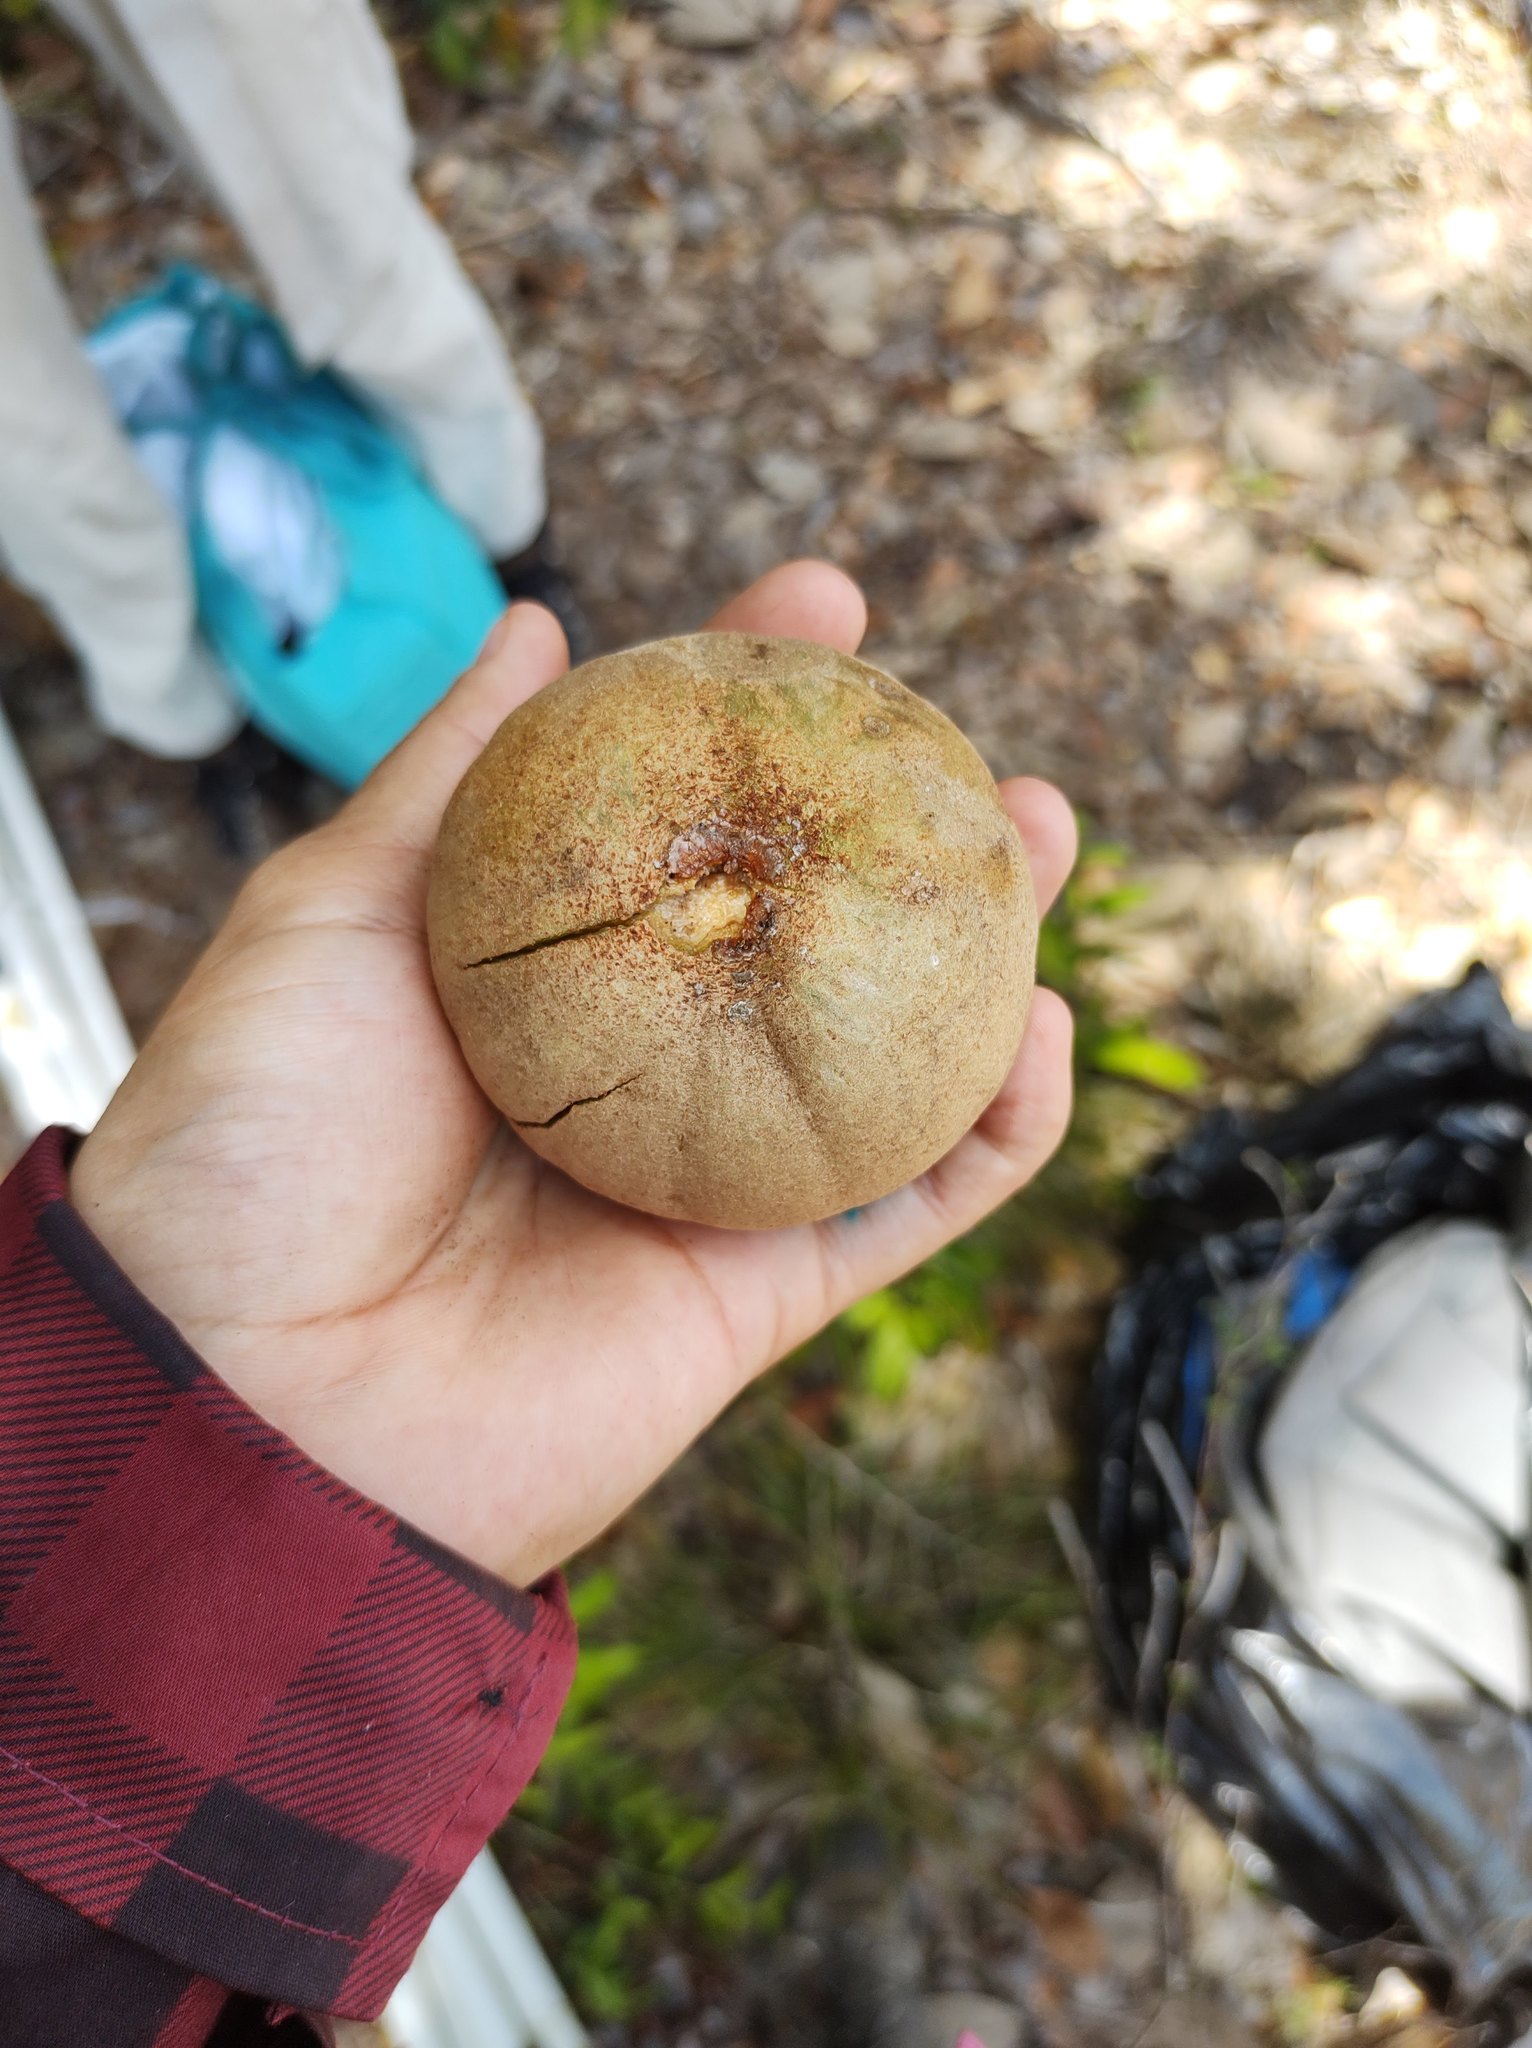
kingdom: Plantae
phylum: Tracheophyta
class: Magnoliopsida
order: Ericales
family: Sapotaceae
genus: Manilkara
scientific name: Manilkara zapota
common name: Sapodilla
